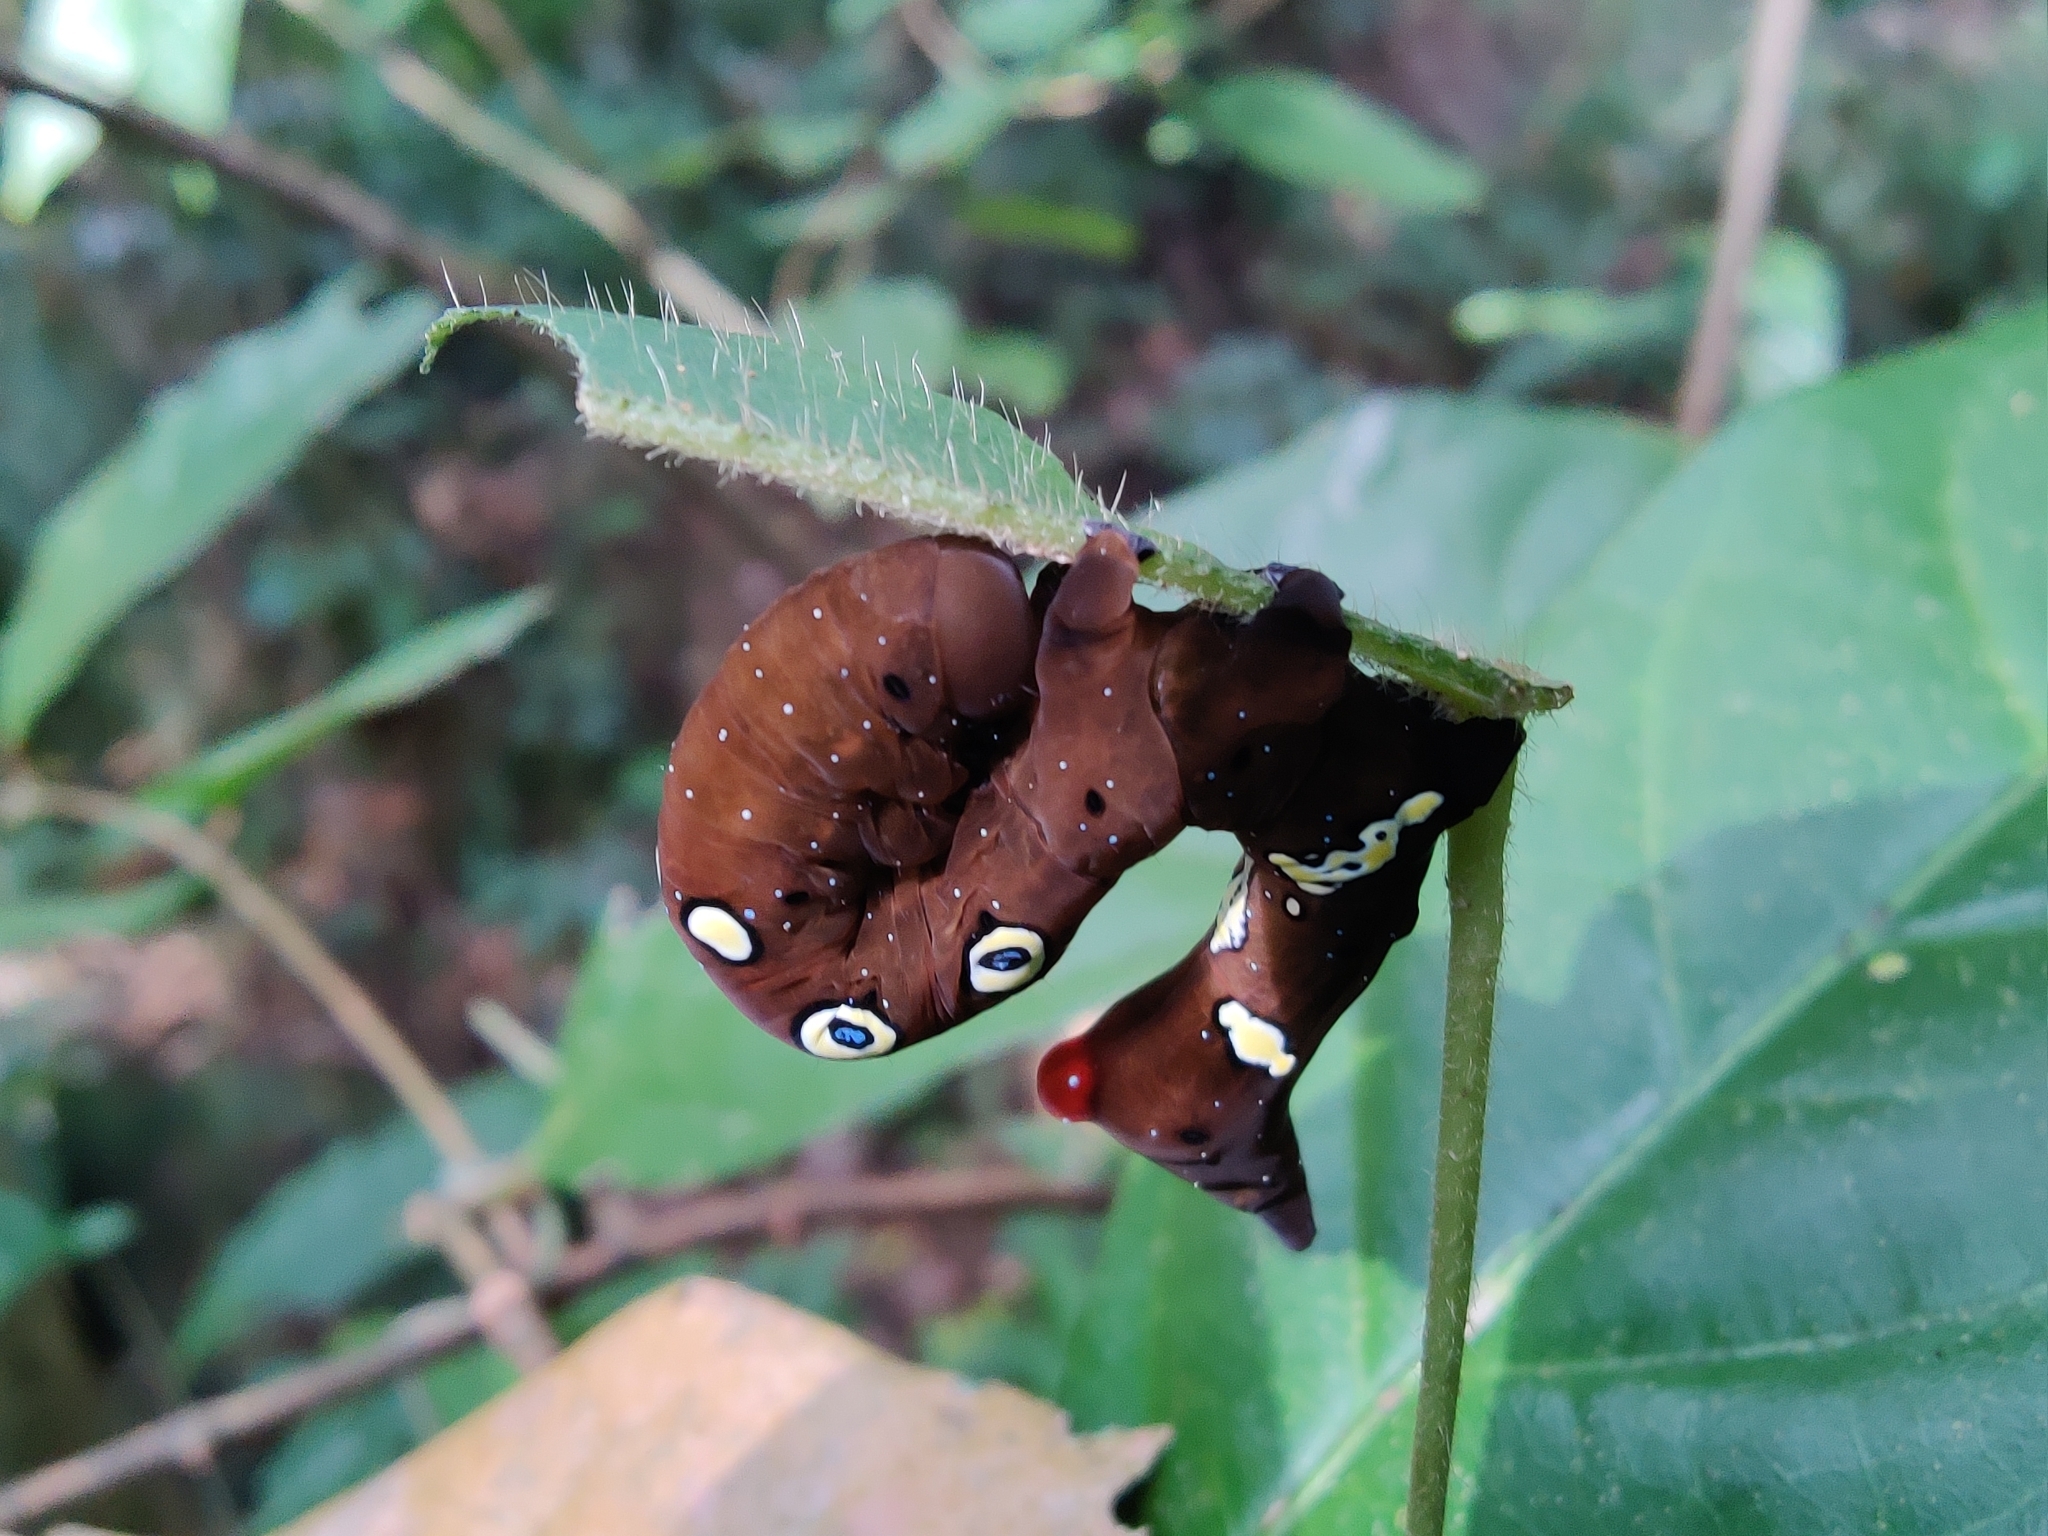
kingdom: Animalia
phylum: Arthropoda
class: Insecta
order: Lepidoptera
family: Erebidae
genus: Eudocima
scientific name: Eudocima homaena
